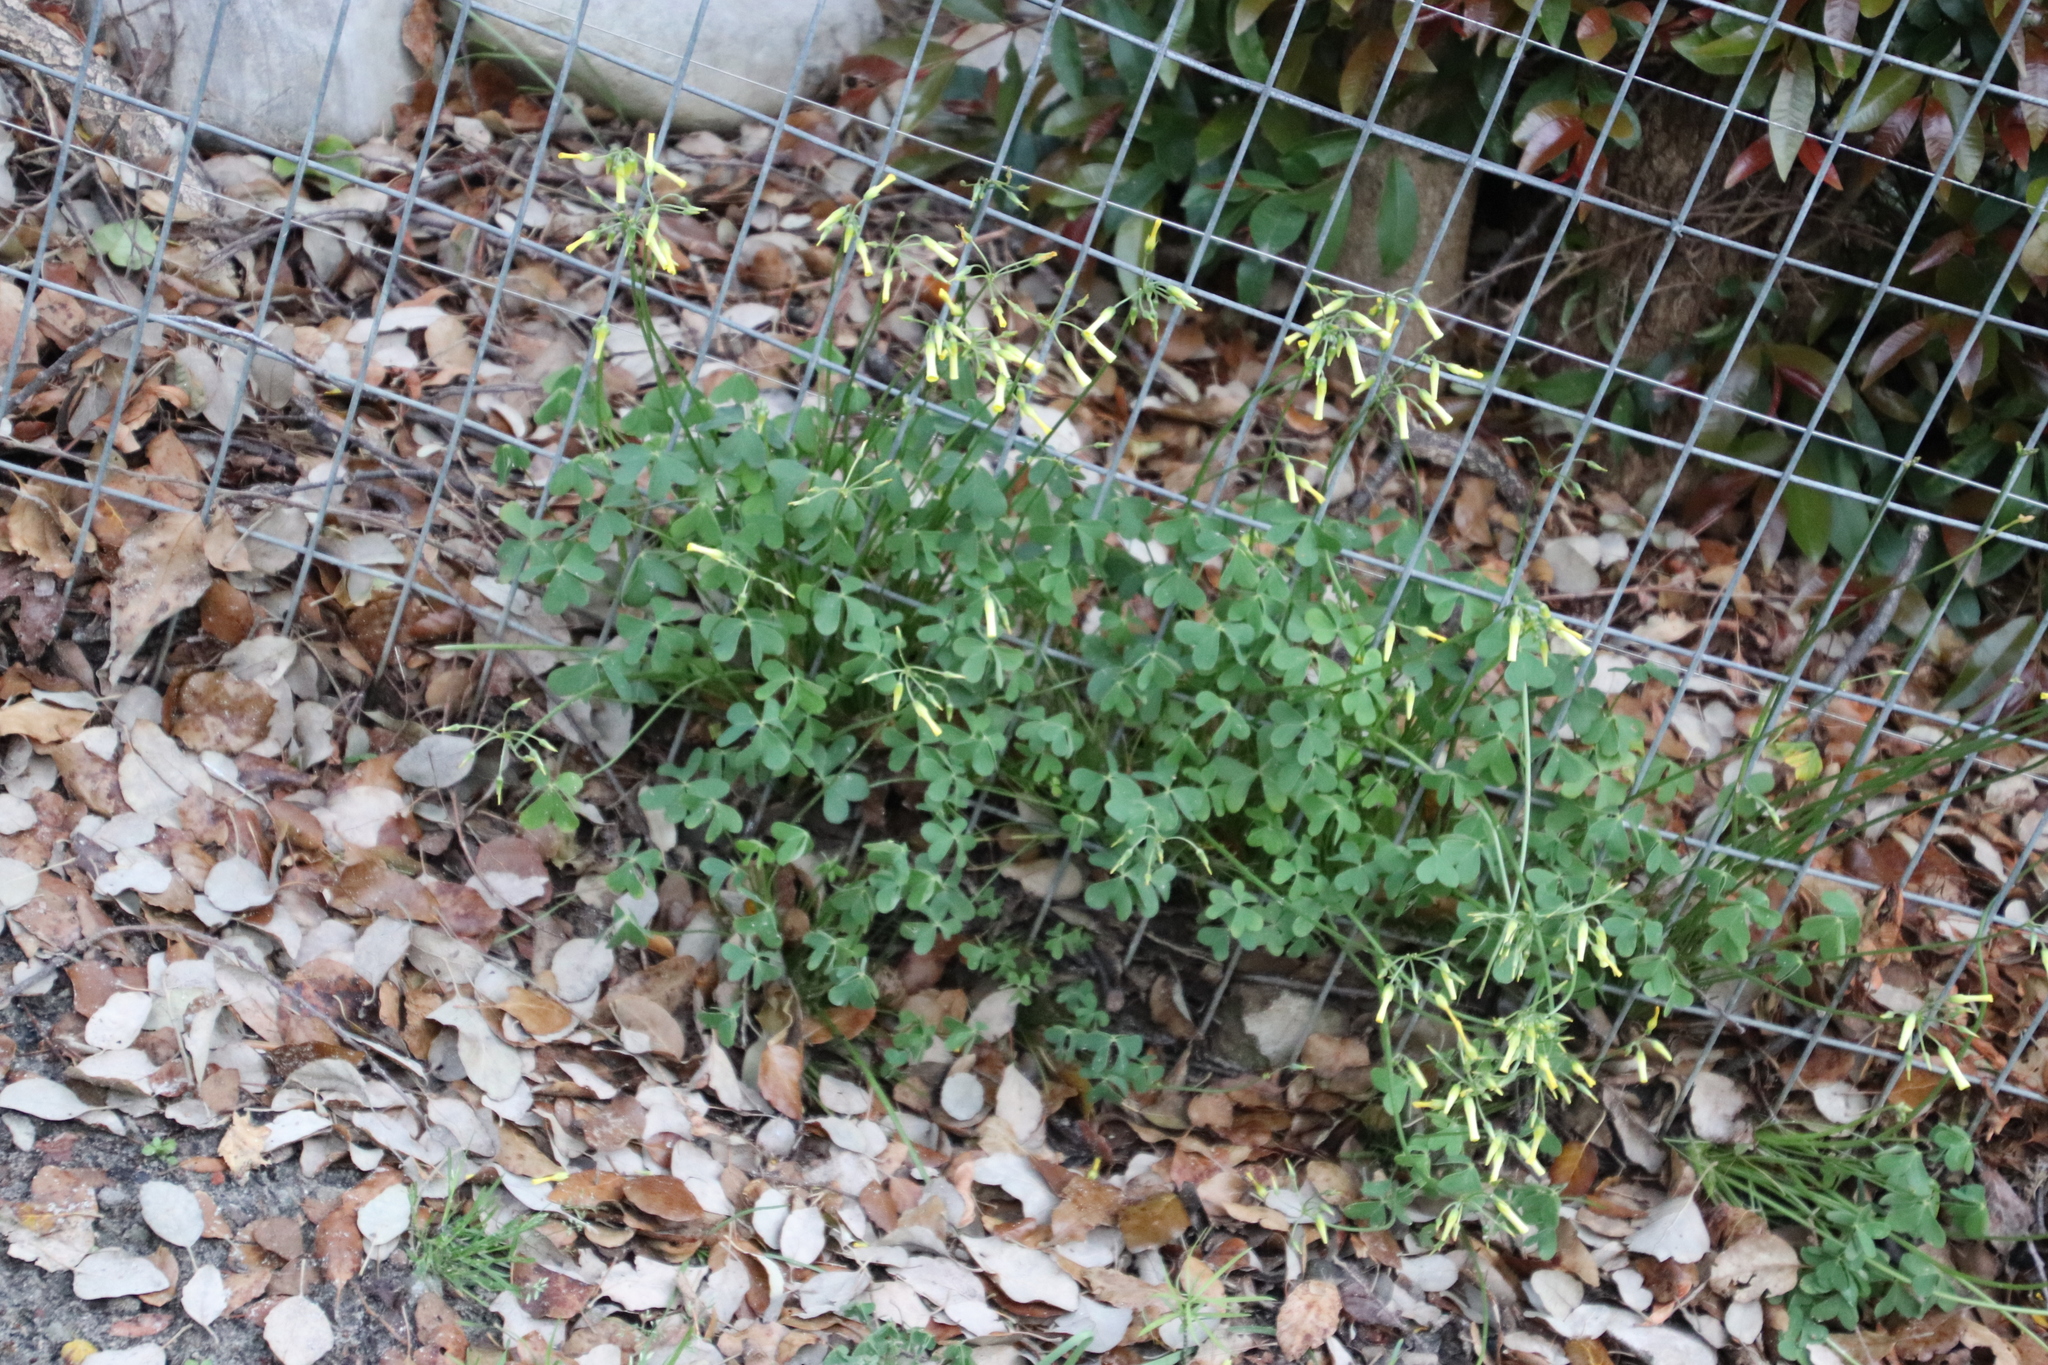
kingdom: Plantae
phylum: Tracheophyta
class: Magnoliopsida
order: Oxalidales
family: Oxalidaceae
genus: Oxalis
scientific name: Oxalis pes-caprae
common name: Bermuda-buttercup
